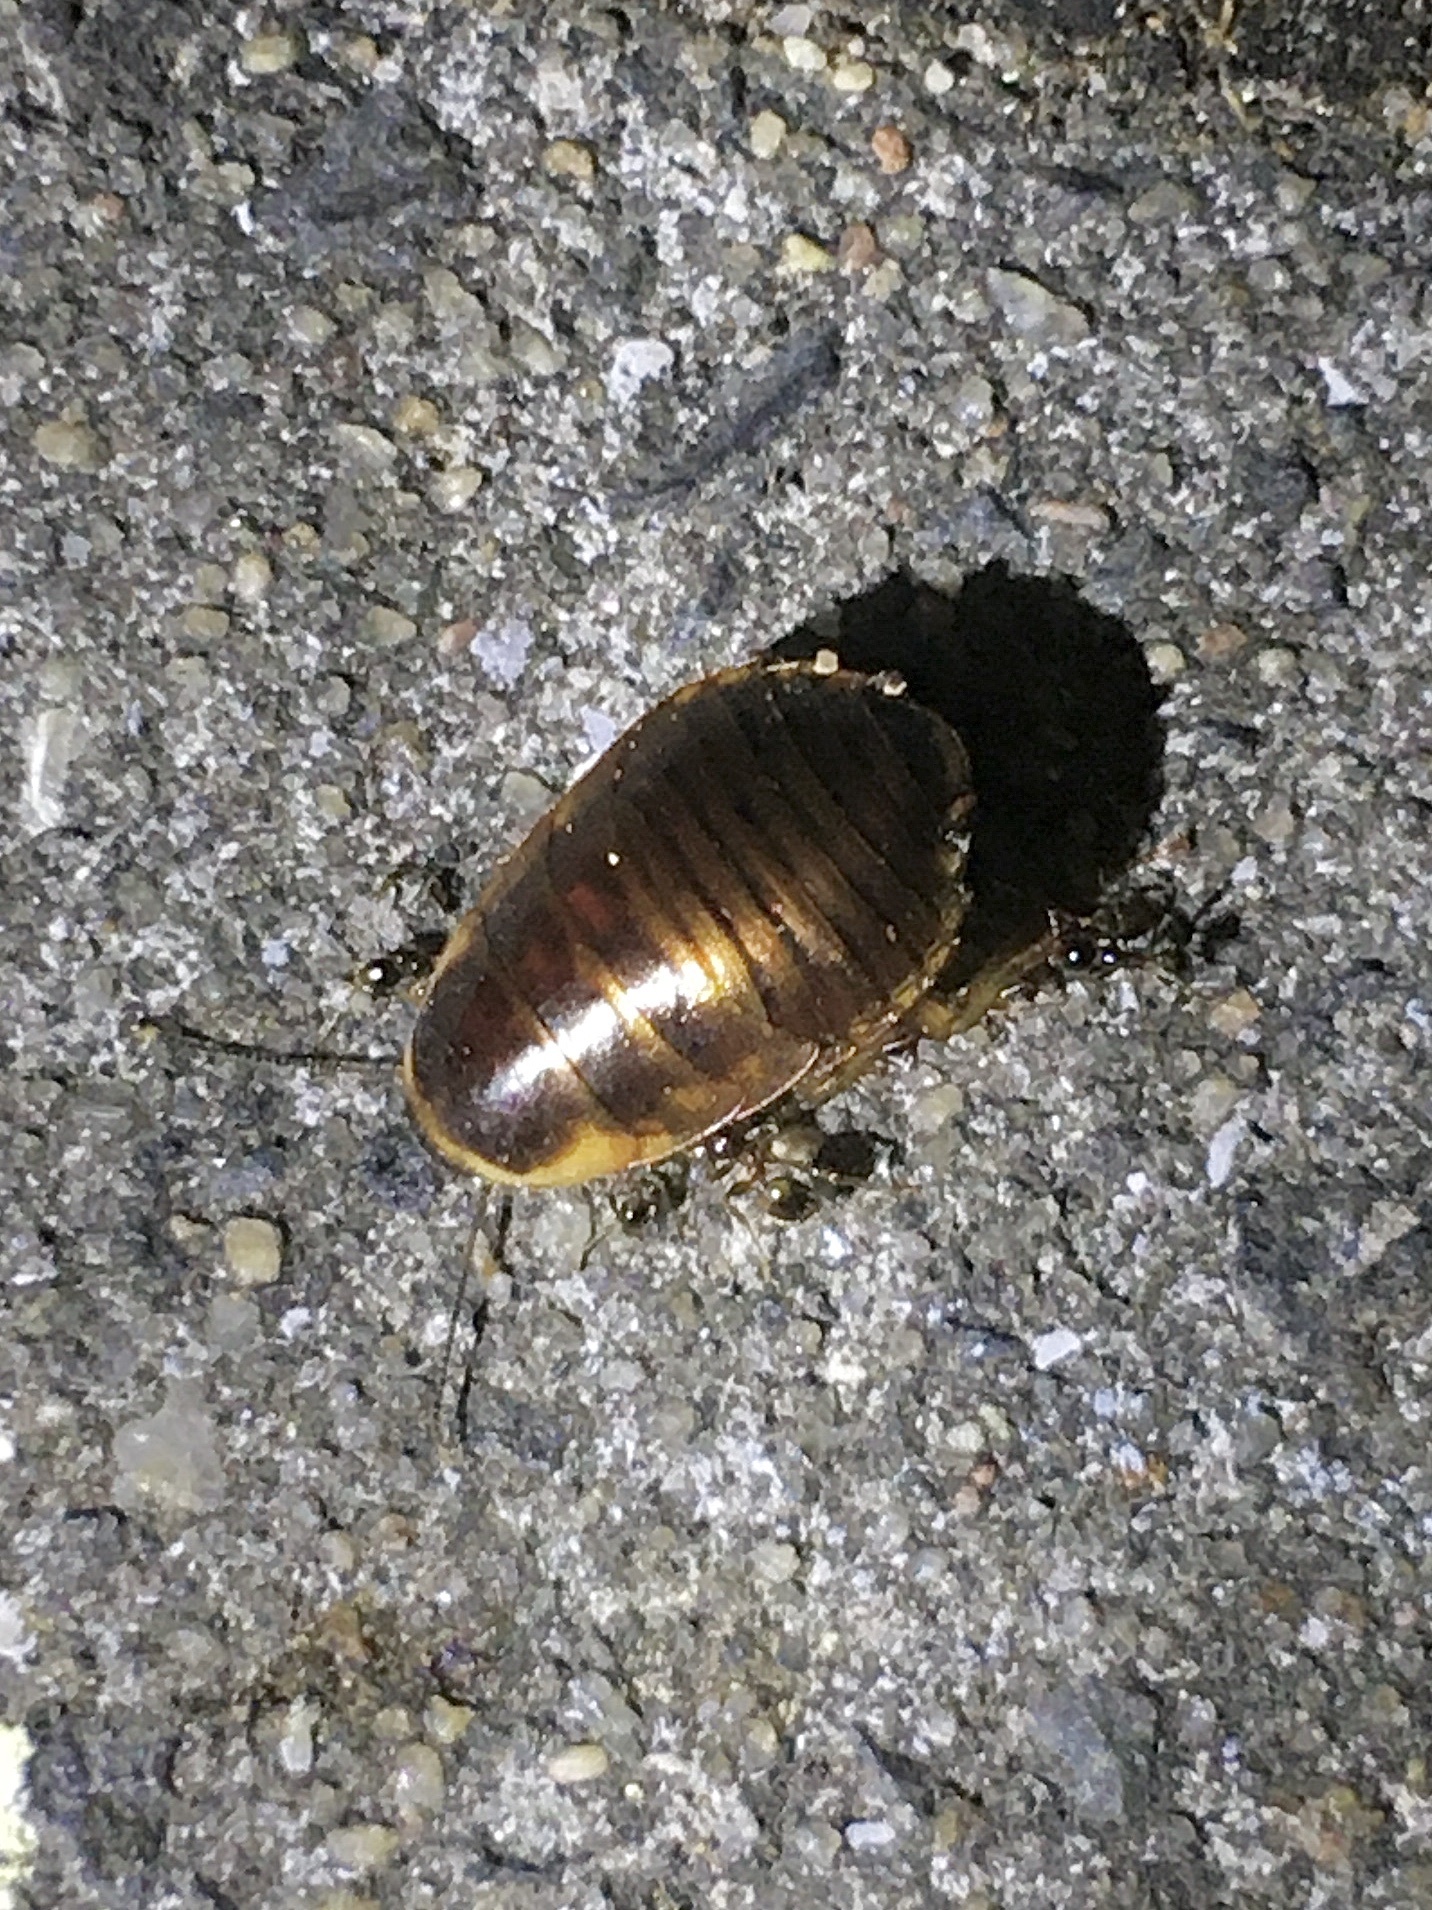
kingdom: Animalia
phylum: Arthropoda
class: Insecta
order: Blattodea
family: Blaberidae
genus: Poeciloblatta
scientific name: Poeciloblatta angusta
